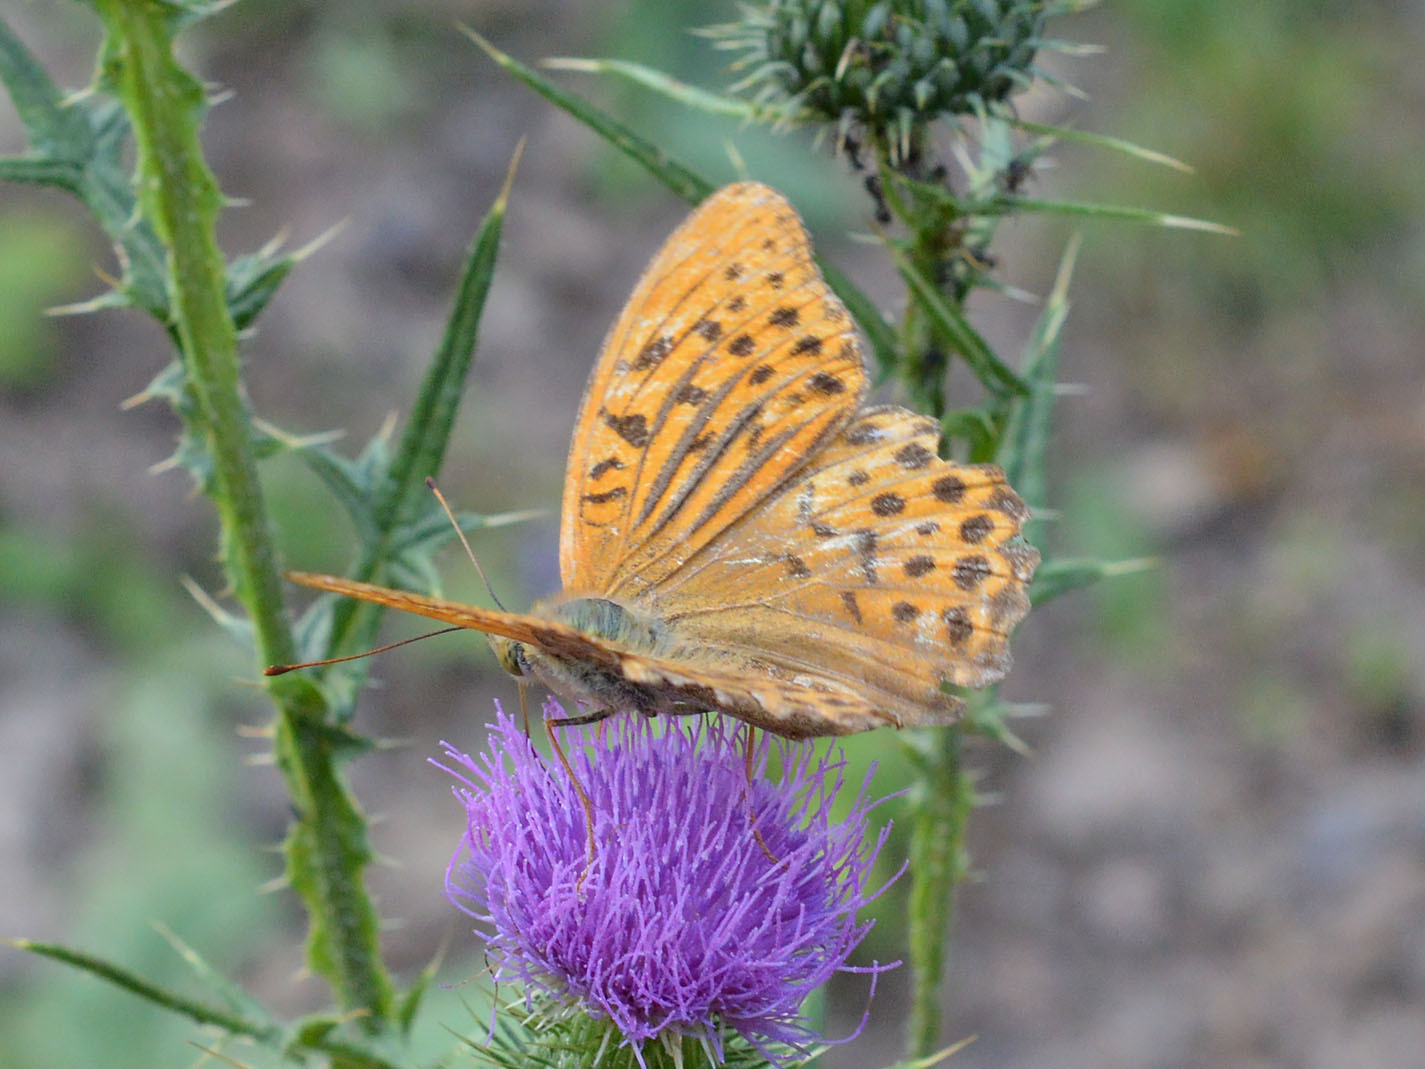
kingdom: Animalia
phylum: Arthropoda
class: Insecta
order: Lepidoptera
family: Nymphalidae
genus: Argynnis
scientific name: Argynnis paphia
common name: Silver-washed fritillary
